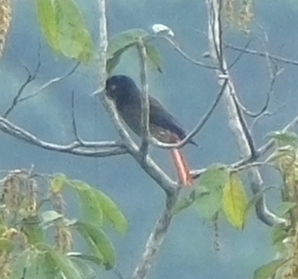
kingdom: Animalia
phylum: Chordata
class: Aves
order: Passeriformes
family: Oriolidae
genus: Oriolus
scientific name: Oriolus traillii
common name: Maroon oriole
